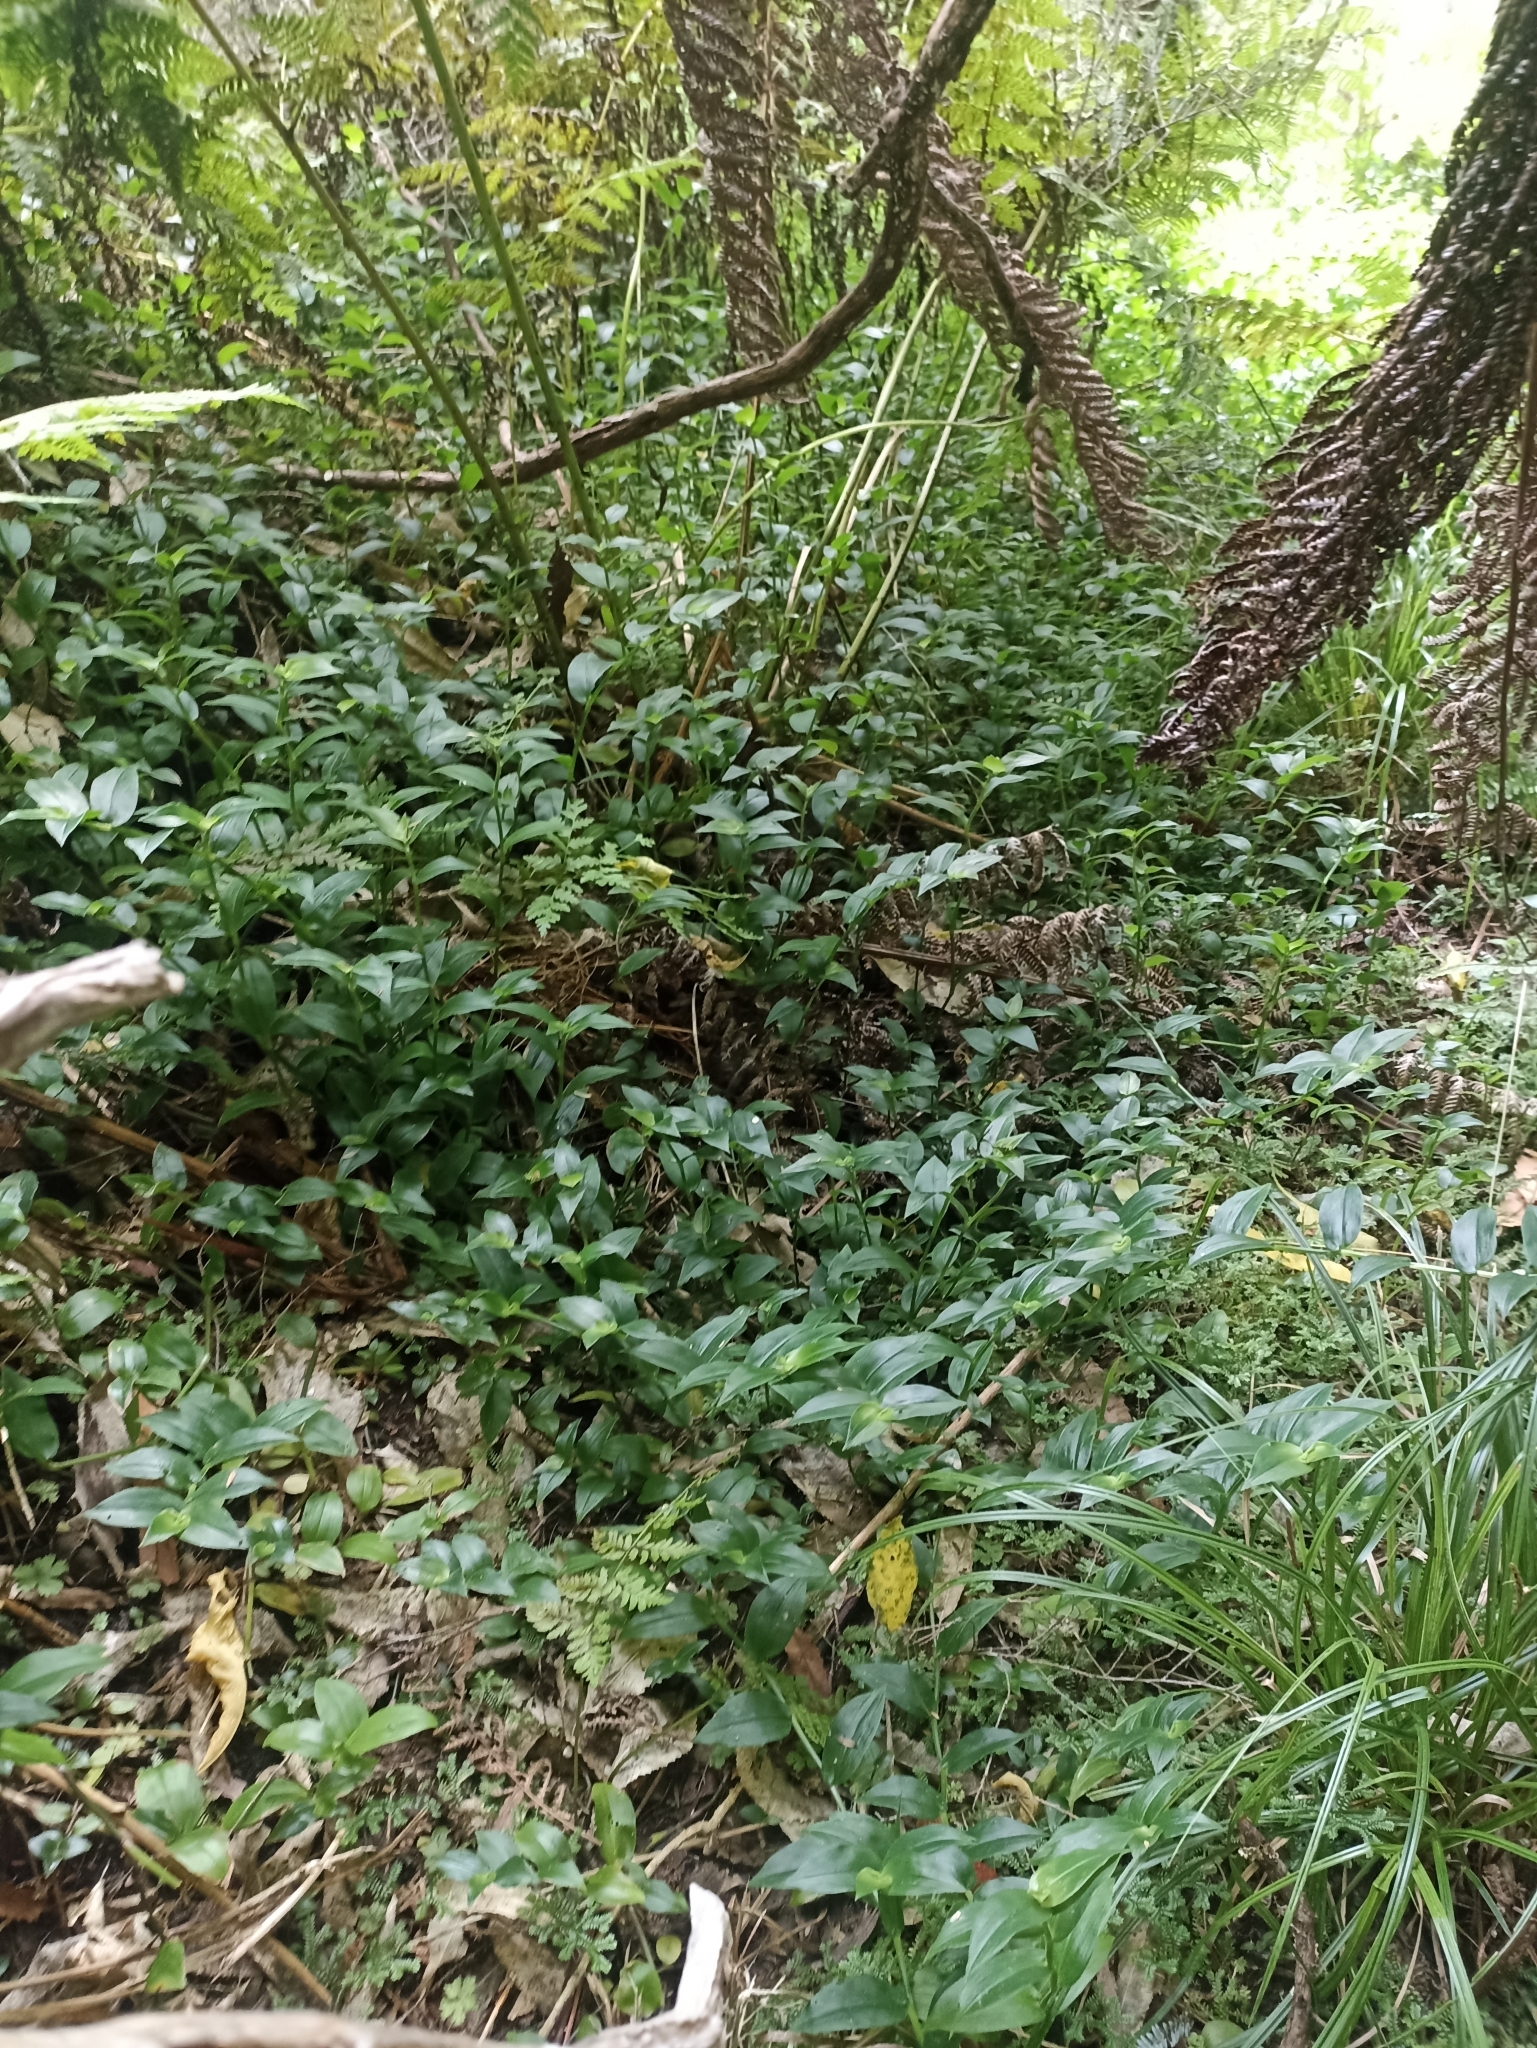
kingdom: Plantae
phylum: Tracheophyta
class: Liliopsida
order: Commelinales
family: Commelinaceae
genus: Tradescantia
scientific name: Tradescantia fluminensis
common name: Wandering-jew
